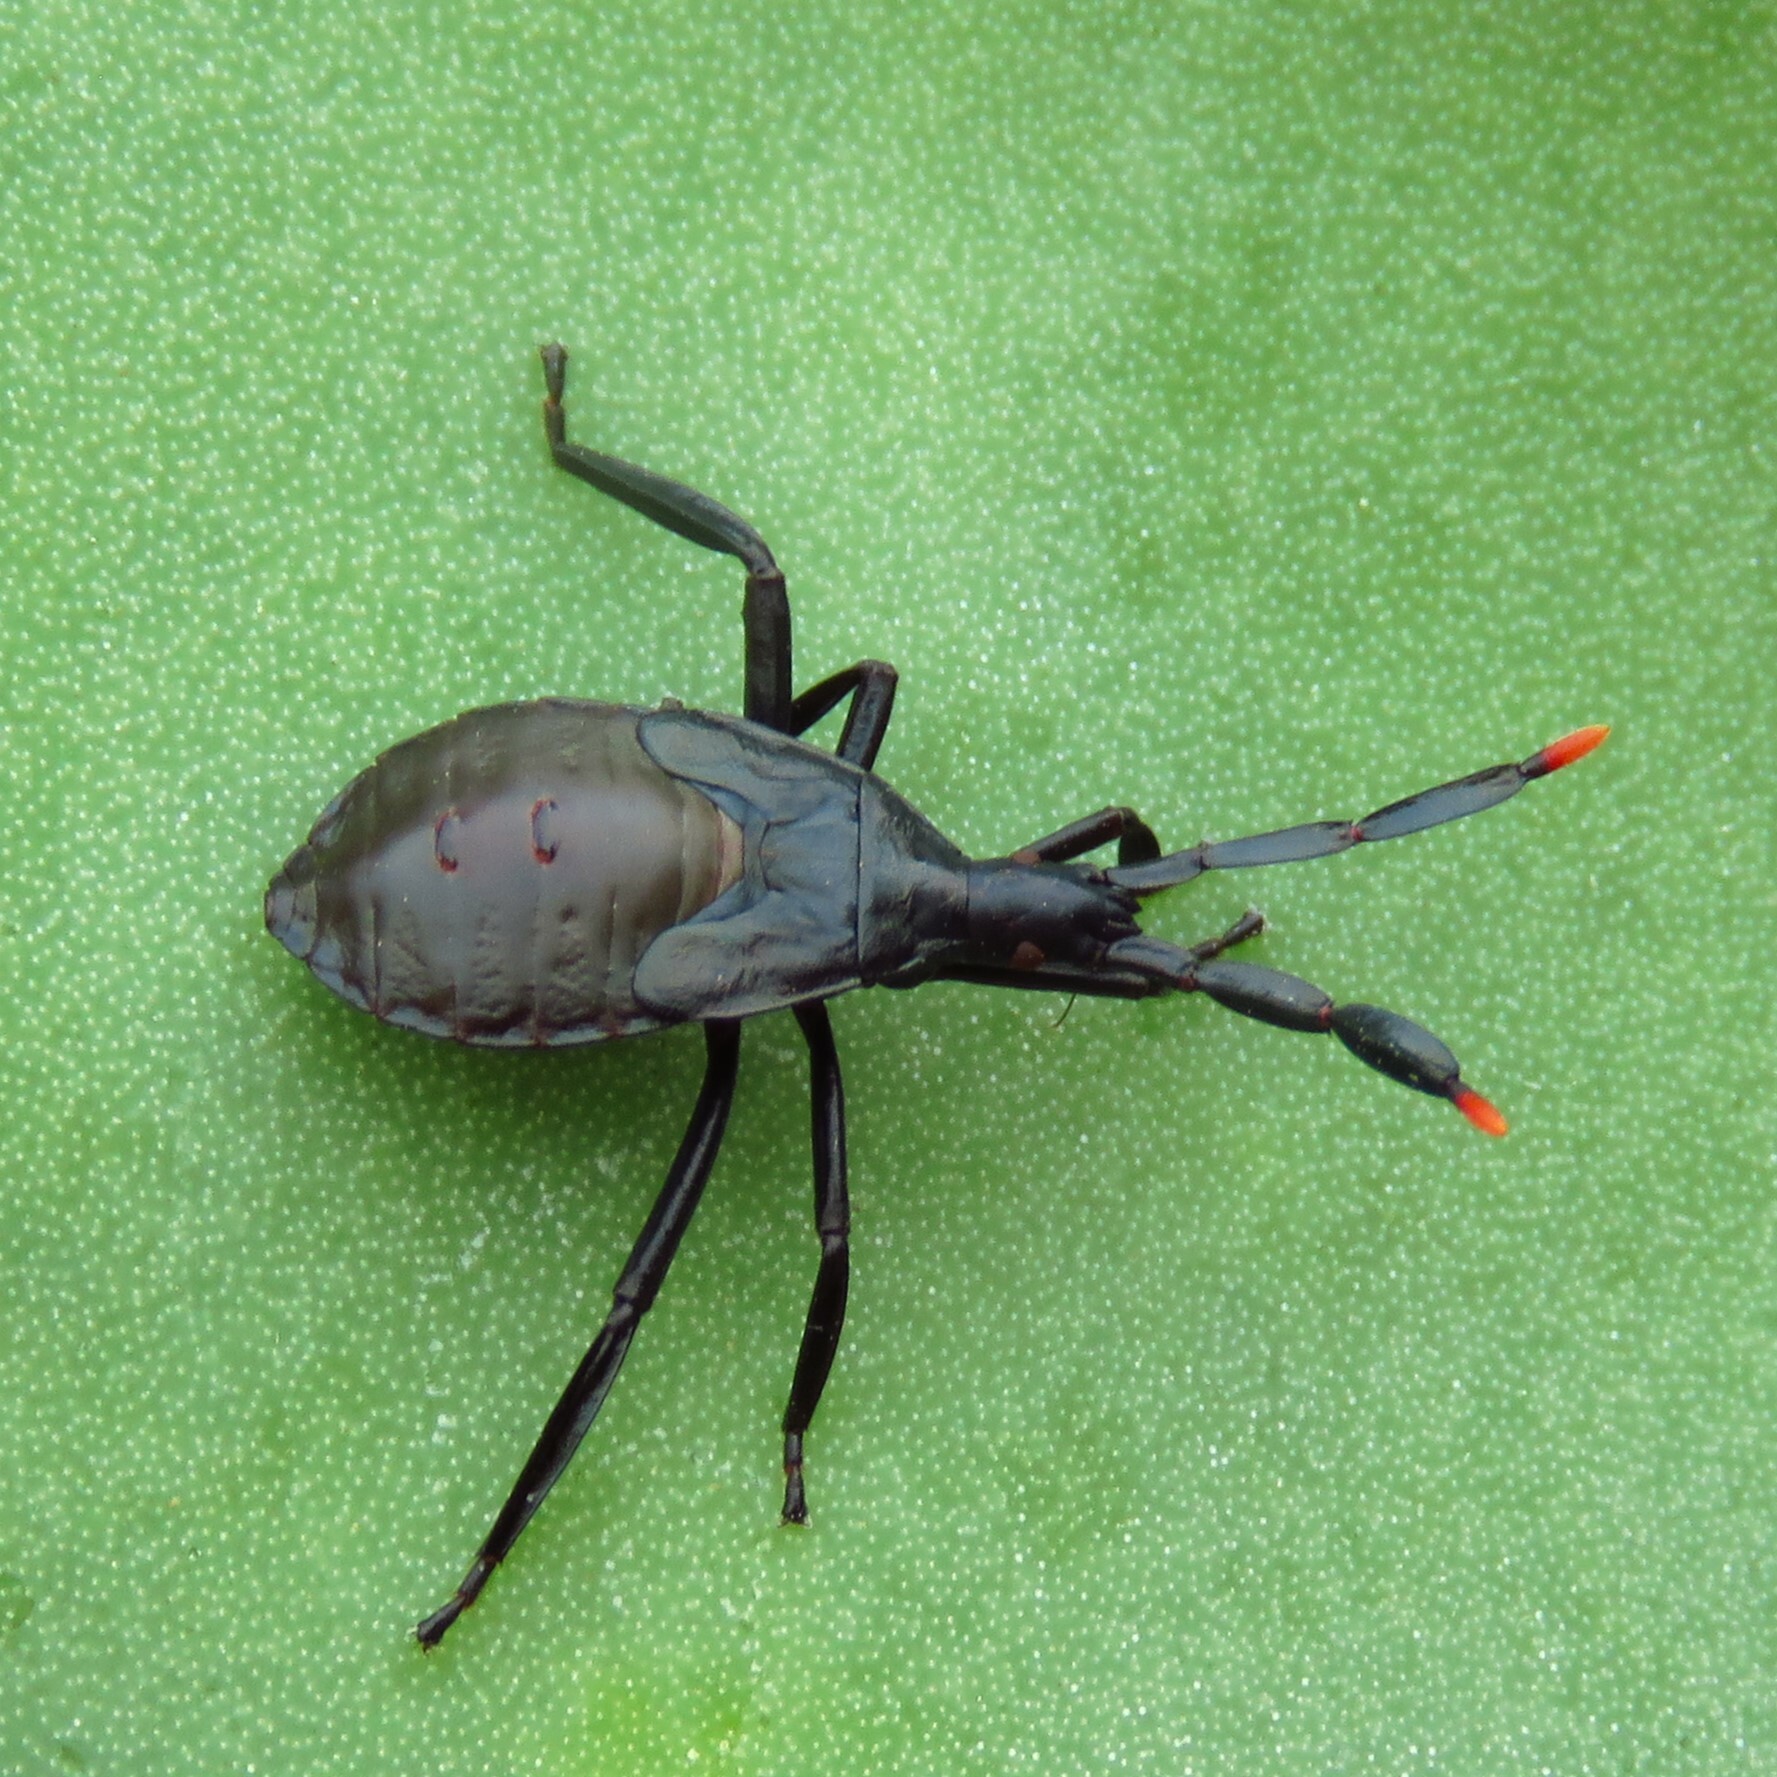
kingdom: Animalia
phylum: Arthropoda
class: Insecta
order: Hemiptera
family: Coreidae
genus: Chelinidea
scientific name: Chelinidea vittiger
